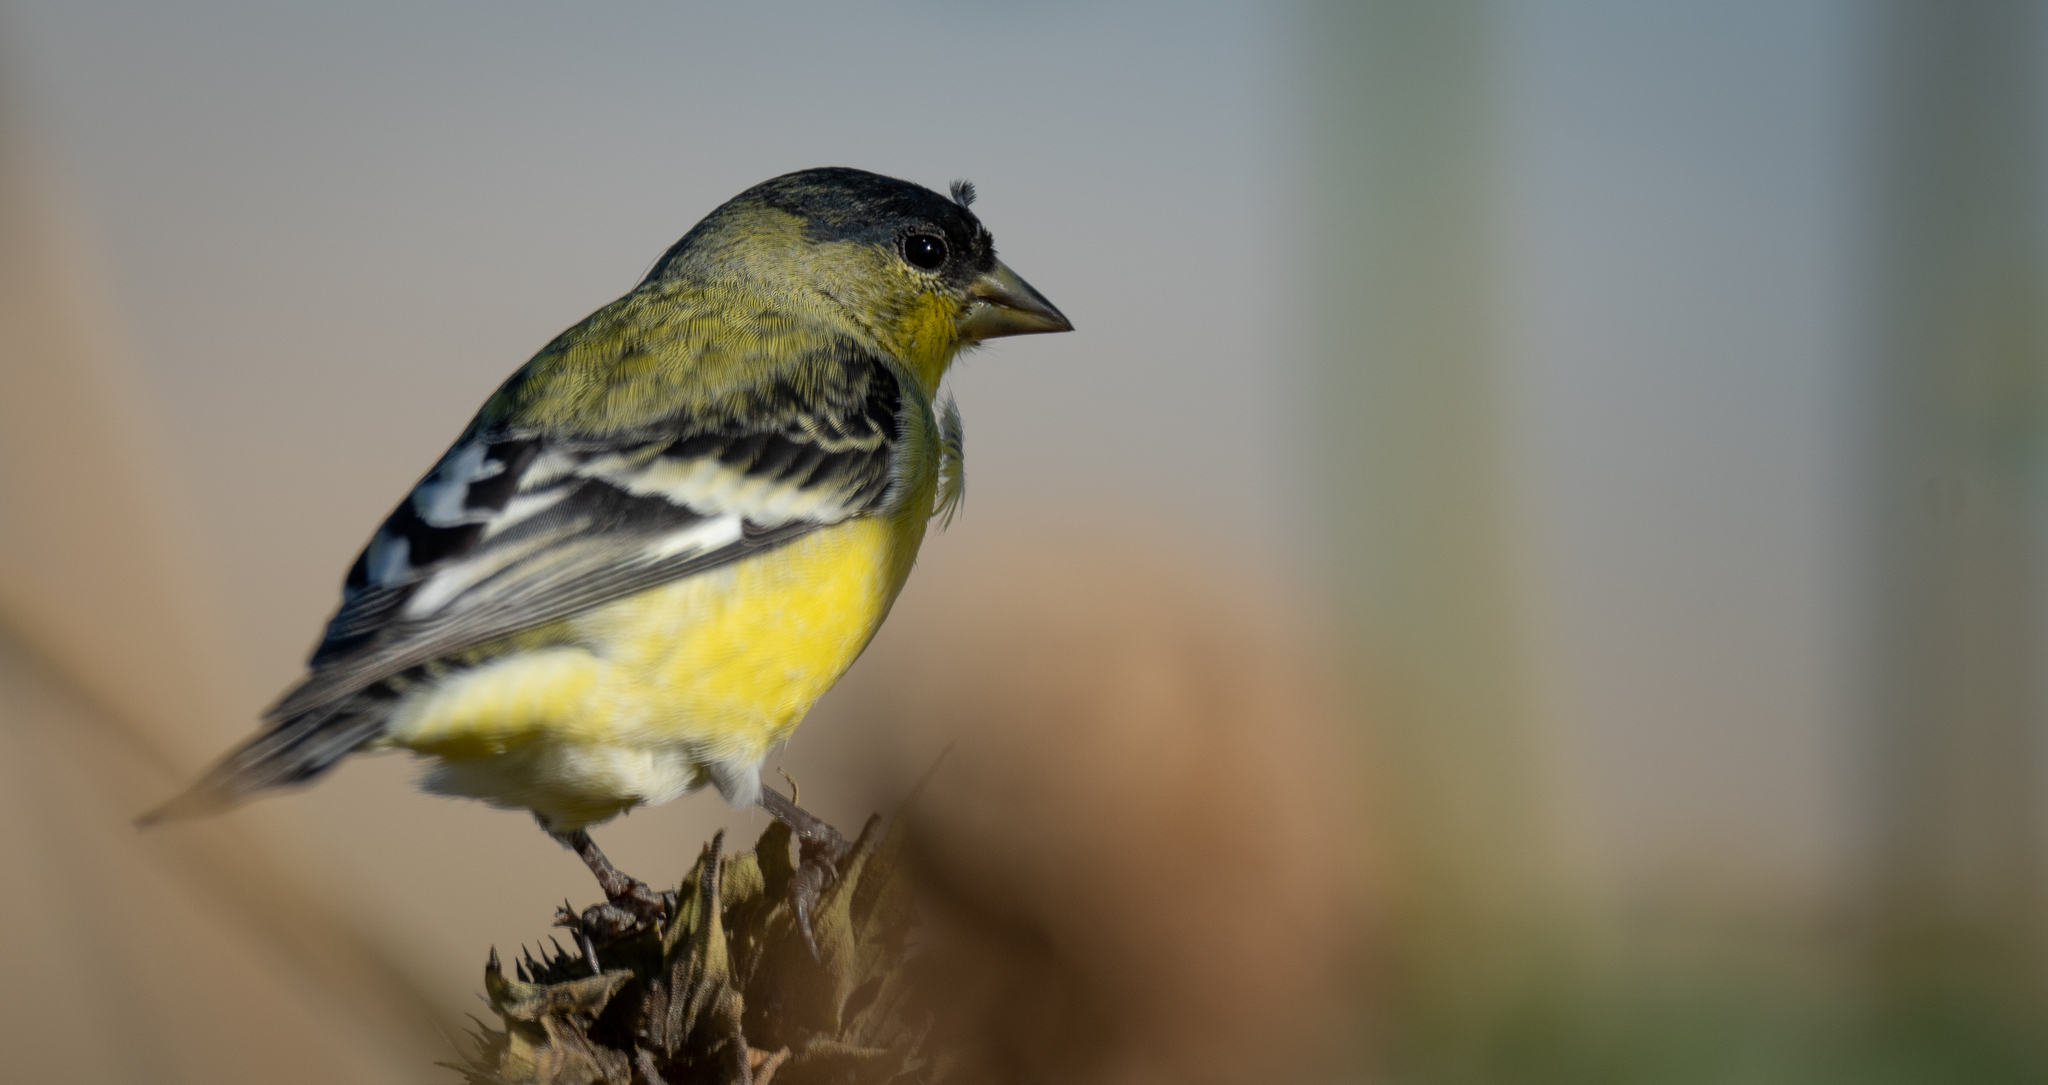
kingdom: Animalia
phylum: Chordata
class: Aves
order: Passeriformes
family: Fringillidae
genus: Spinus
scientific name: Spinus psaltria
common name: Lesser goldfinch
